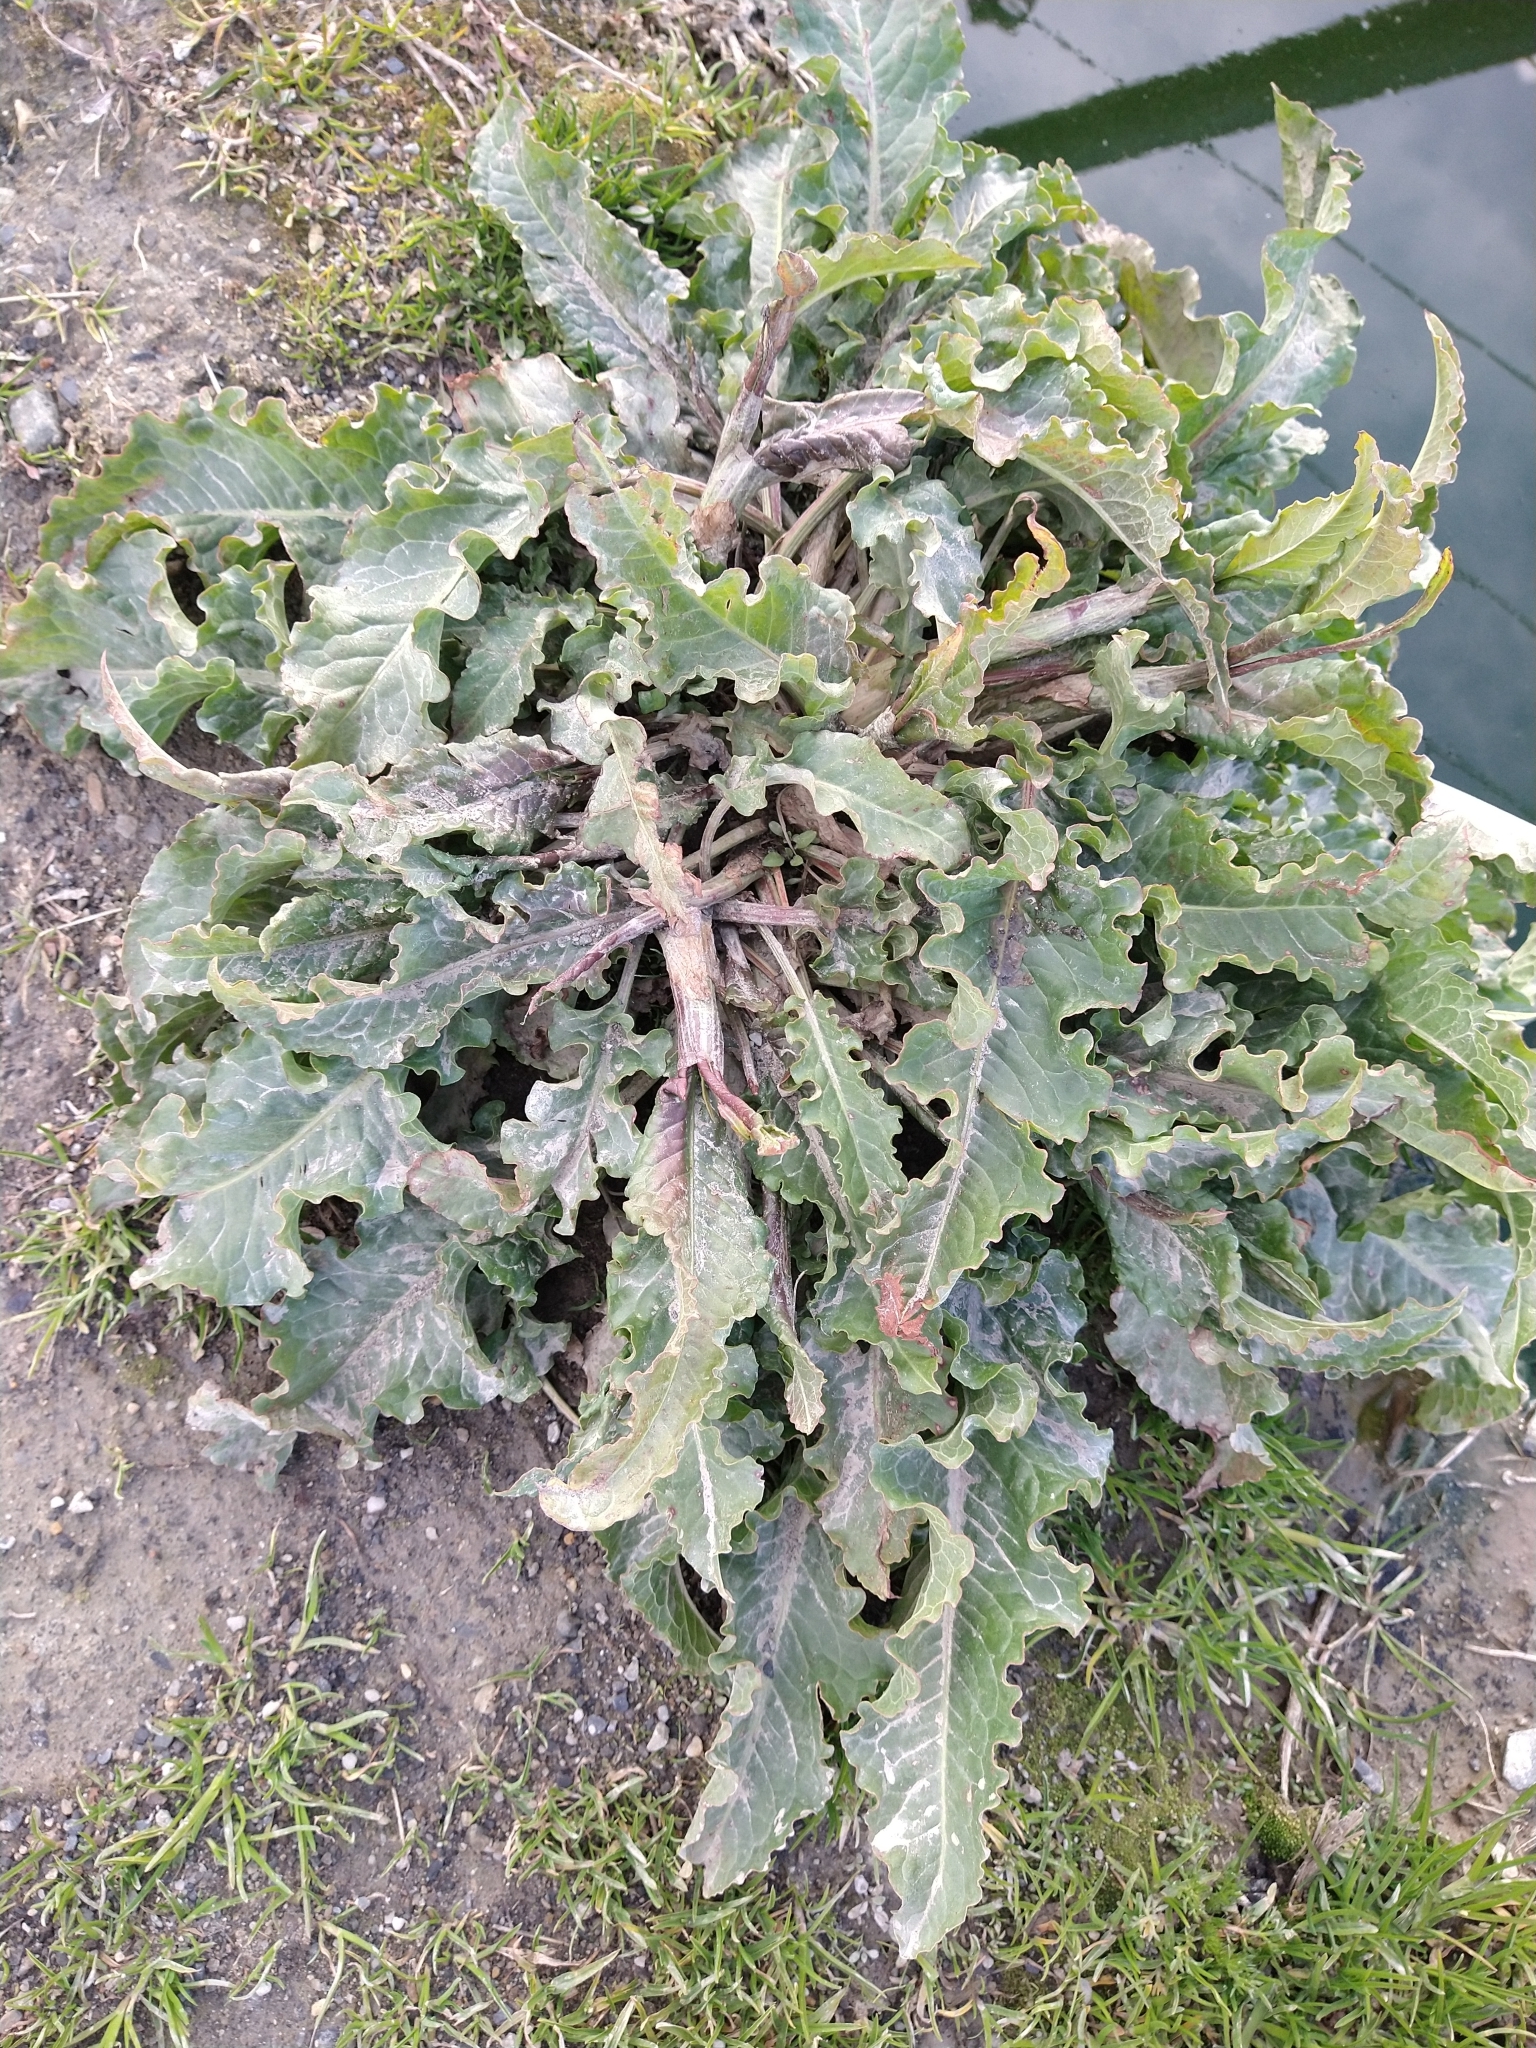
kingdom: Plantae
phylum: Tracheophyta
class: Magnoliopsida
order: Caryophyllales
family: Polygonaceae
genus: Rumex
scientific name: Rumex crispus
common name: Curled dock
